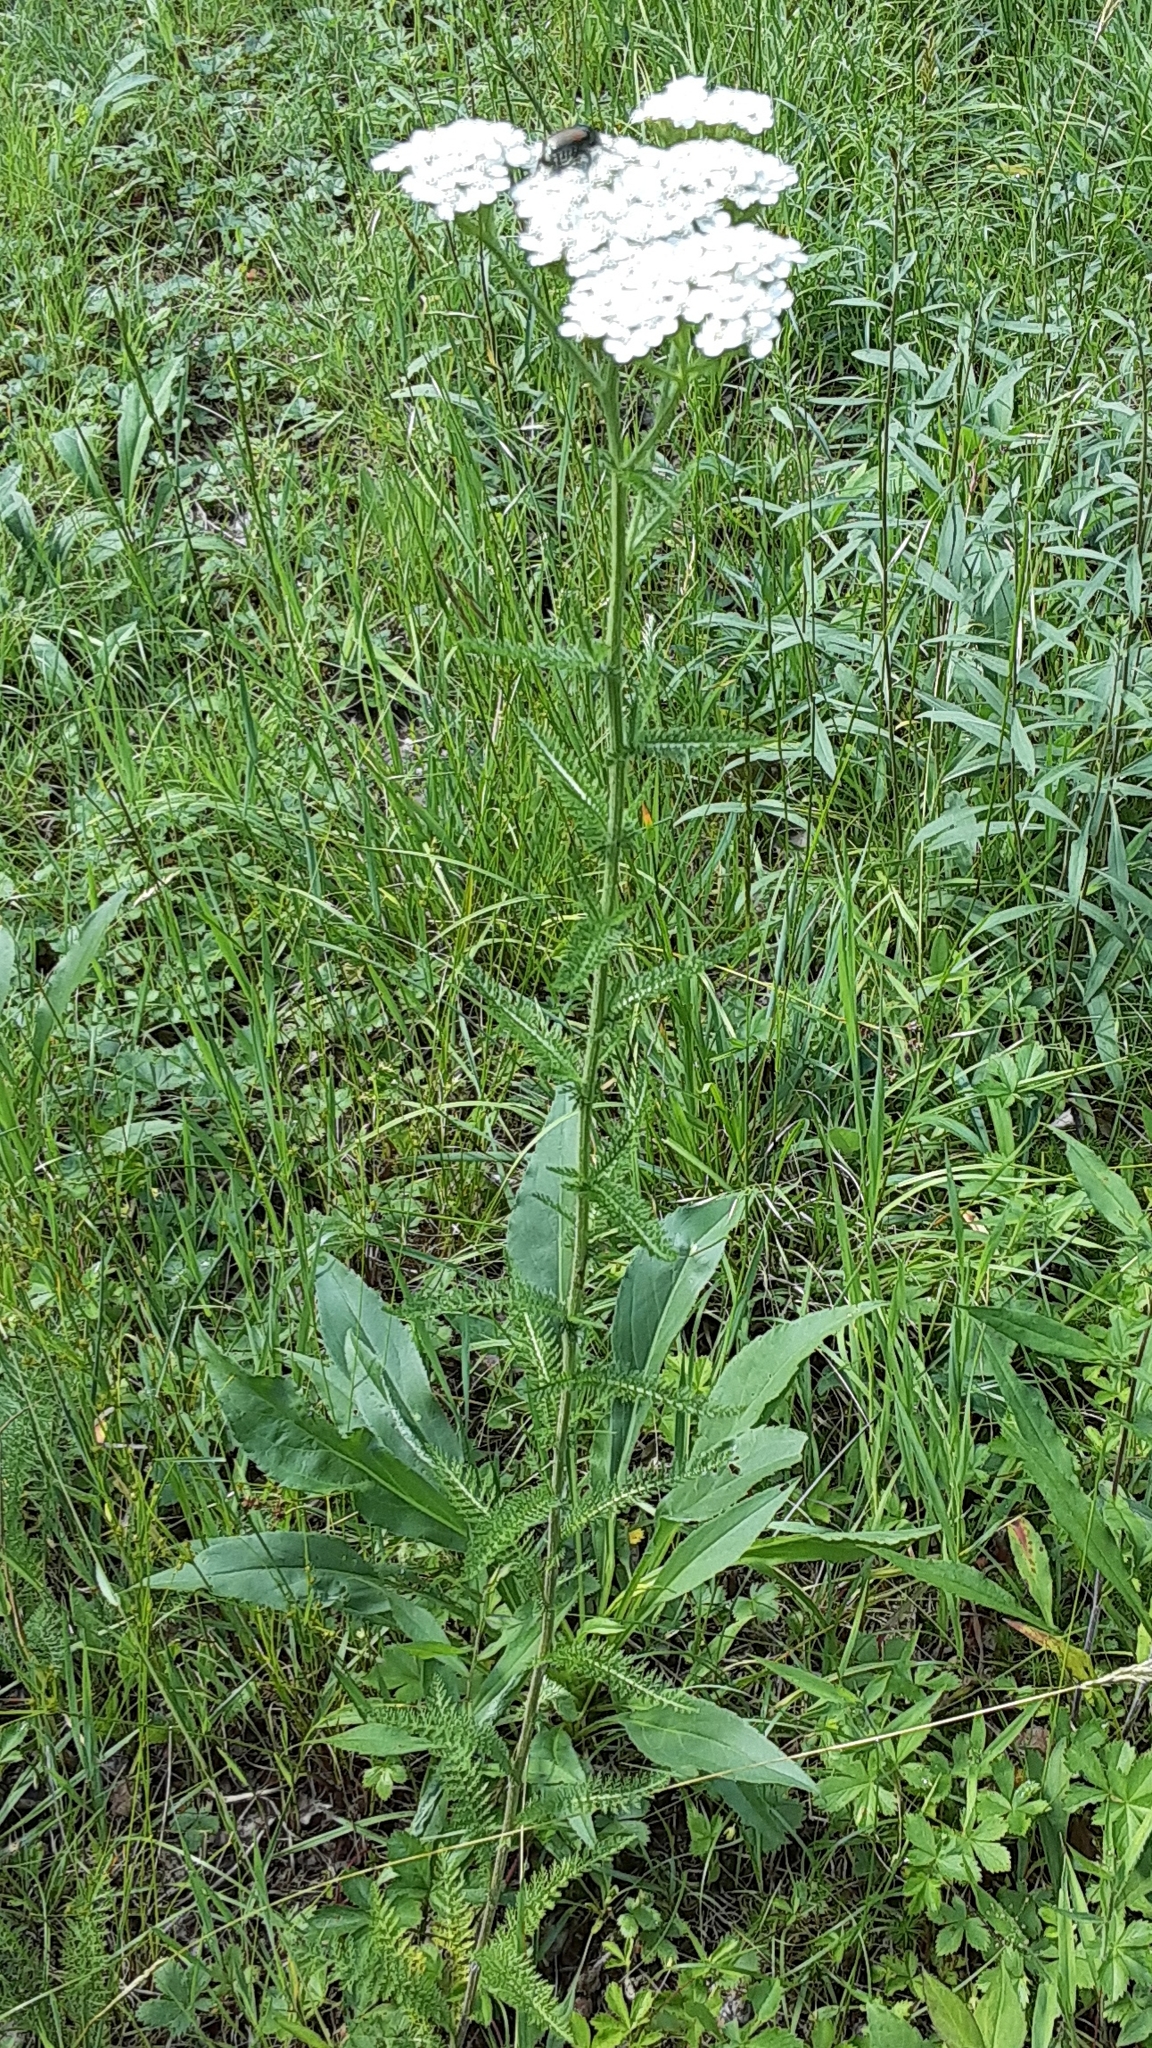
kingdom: Plantae
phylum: Tracheophyta
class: Magnoliopsida
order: Asterales
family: Asteraceae
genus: Achillea
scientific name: Achillea millefolium
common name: Yarrow
